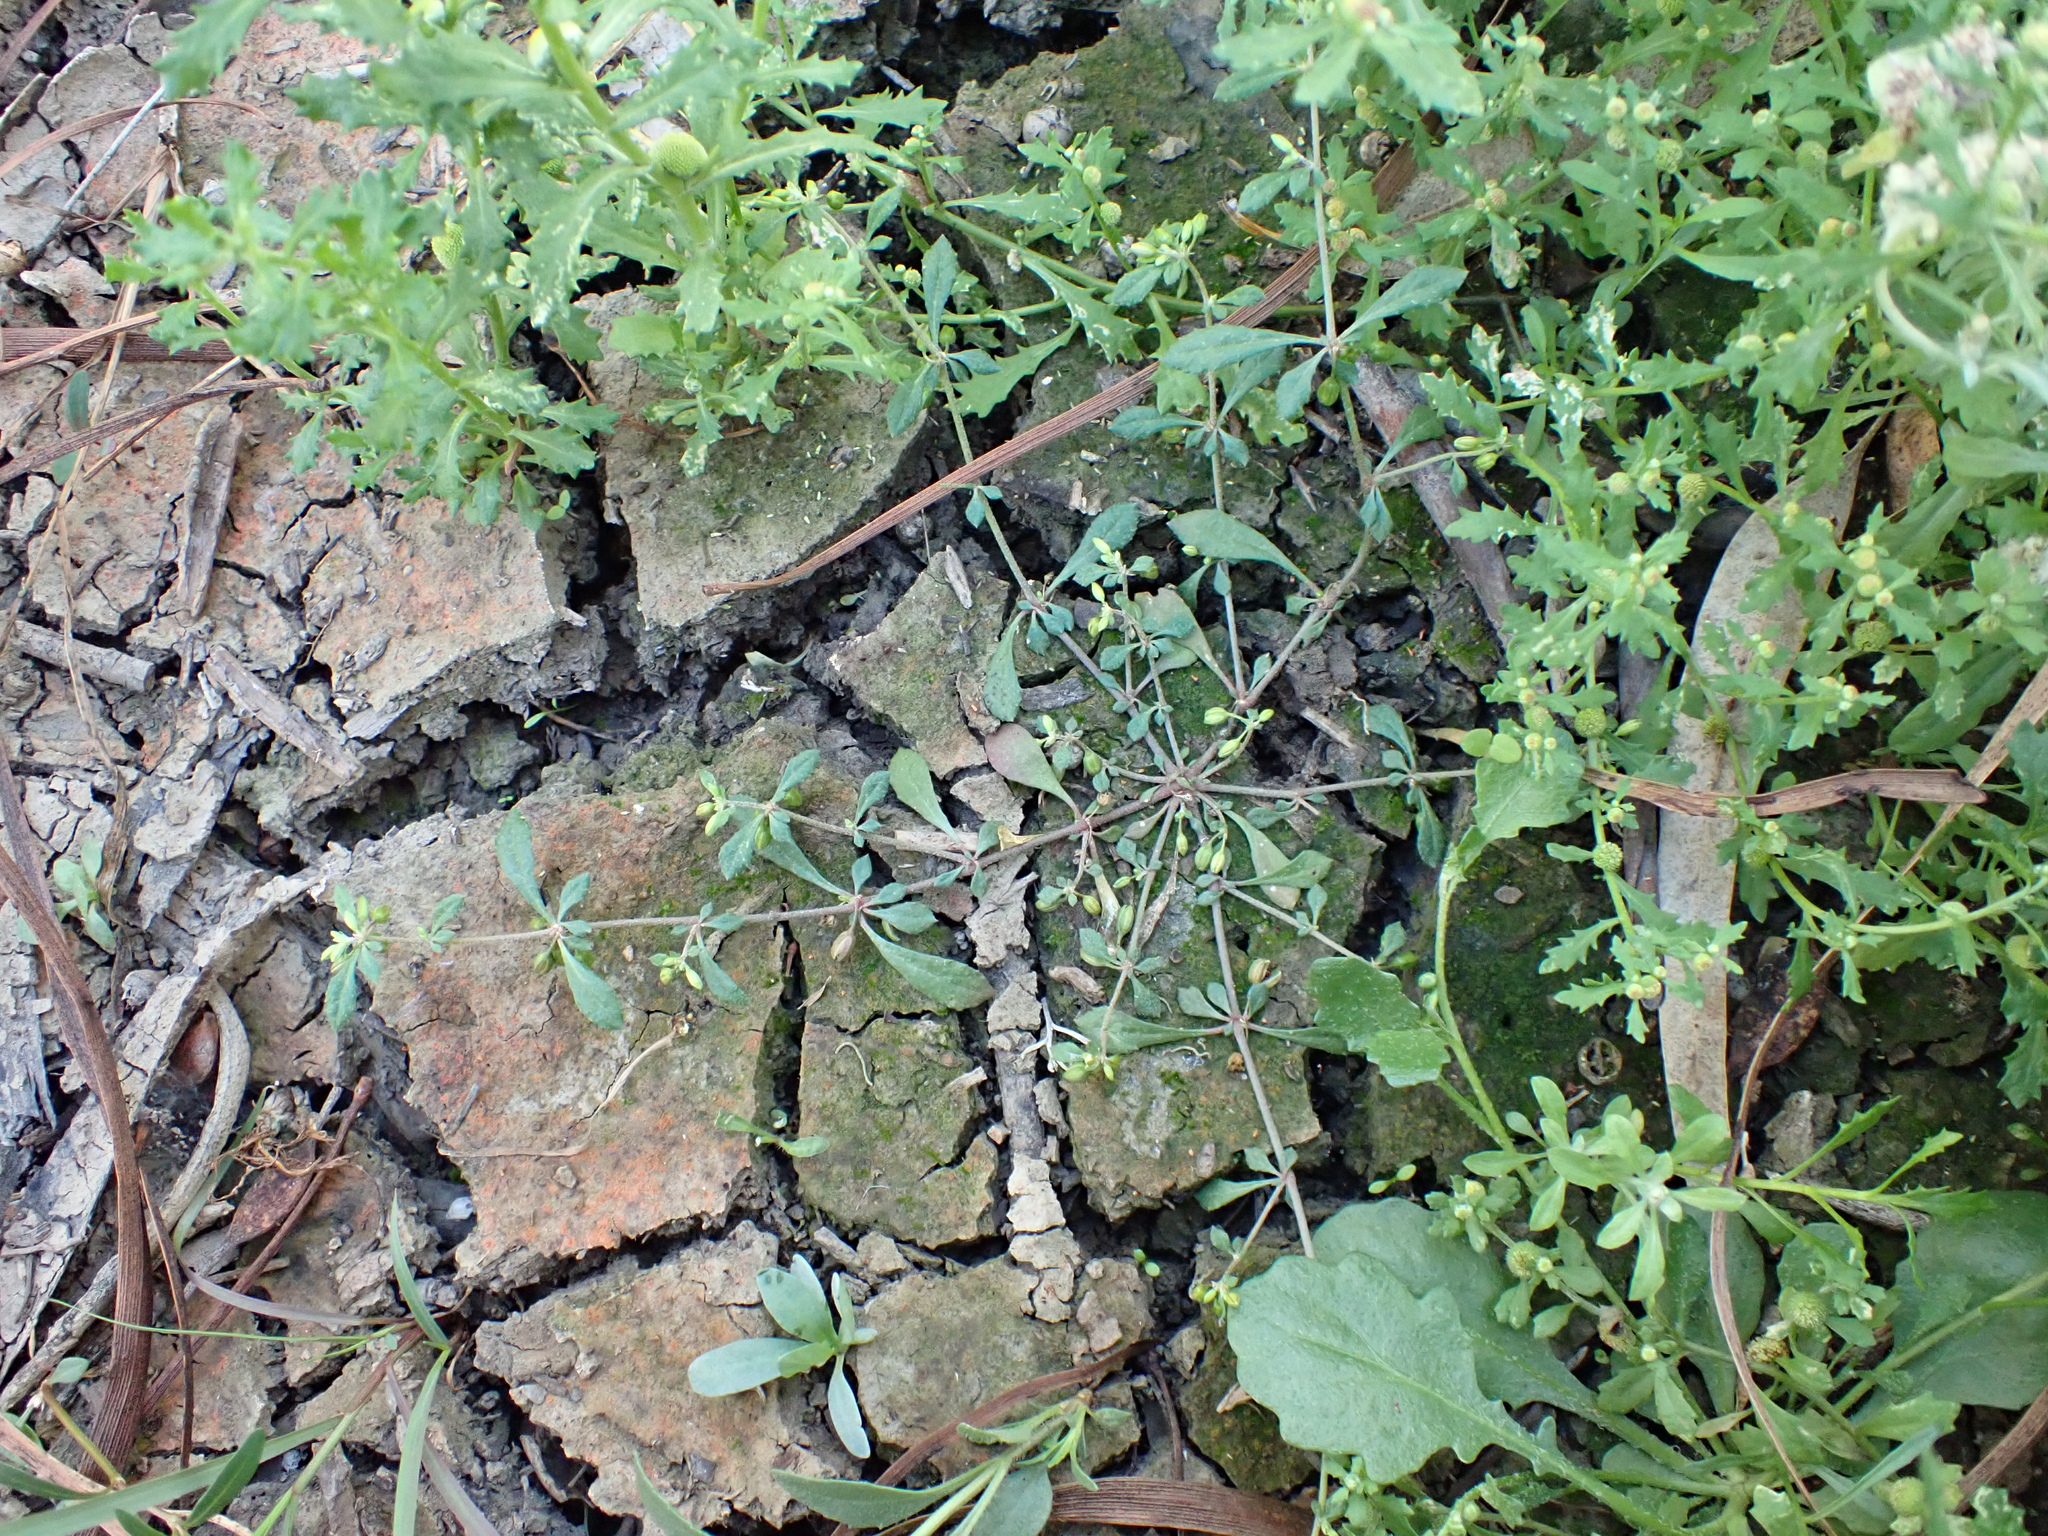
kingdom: Plantae
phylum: Tracheophyta
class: Magnoliopsida
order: Caryophyllales
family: Molluginaceae
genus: Glinus
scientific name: Glinus oppositifolius
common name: Slender carpetweed
